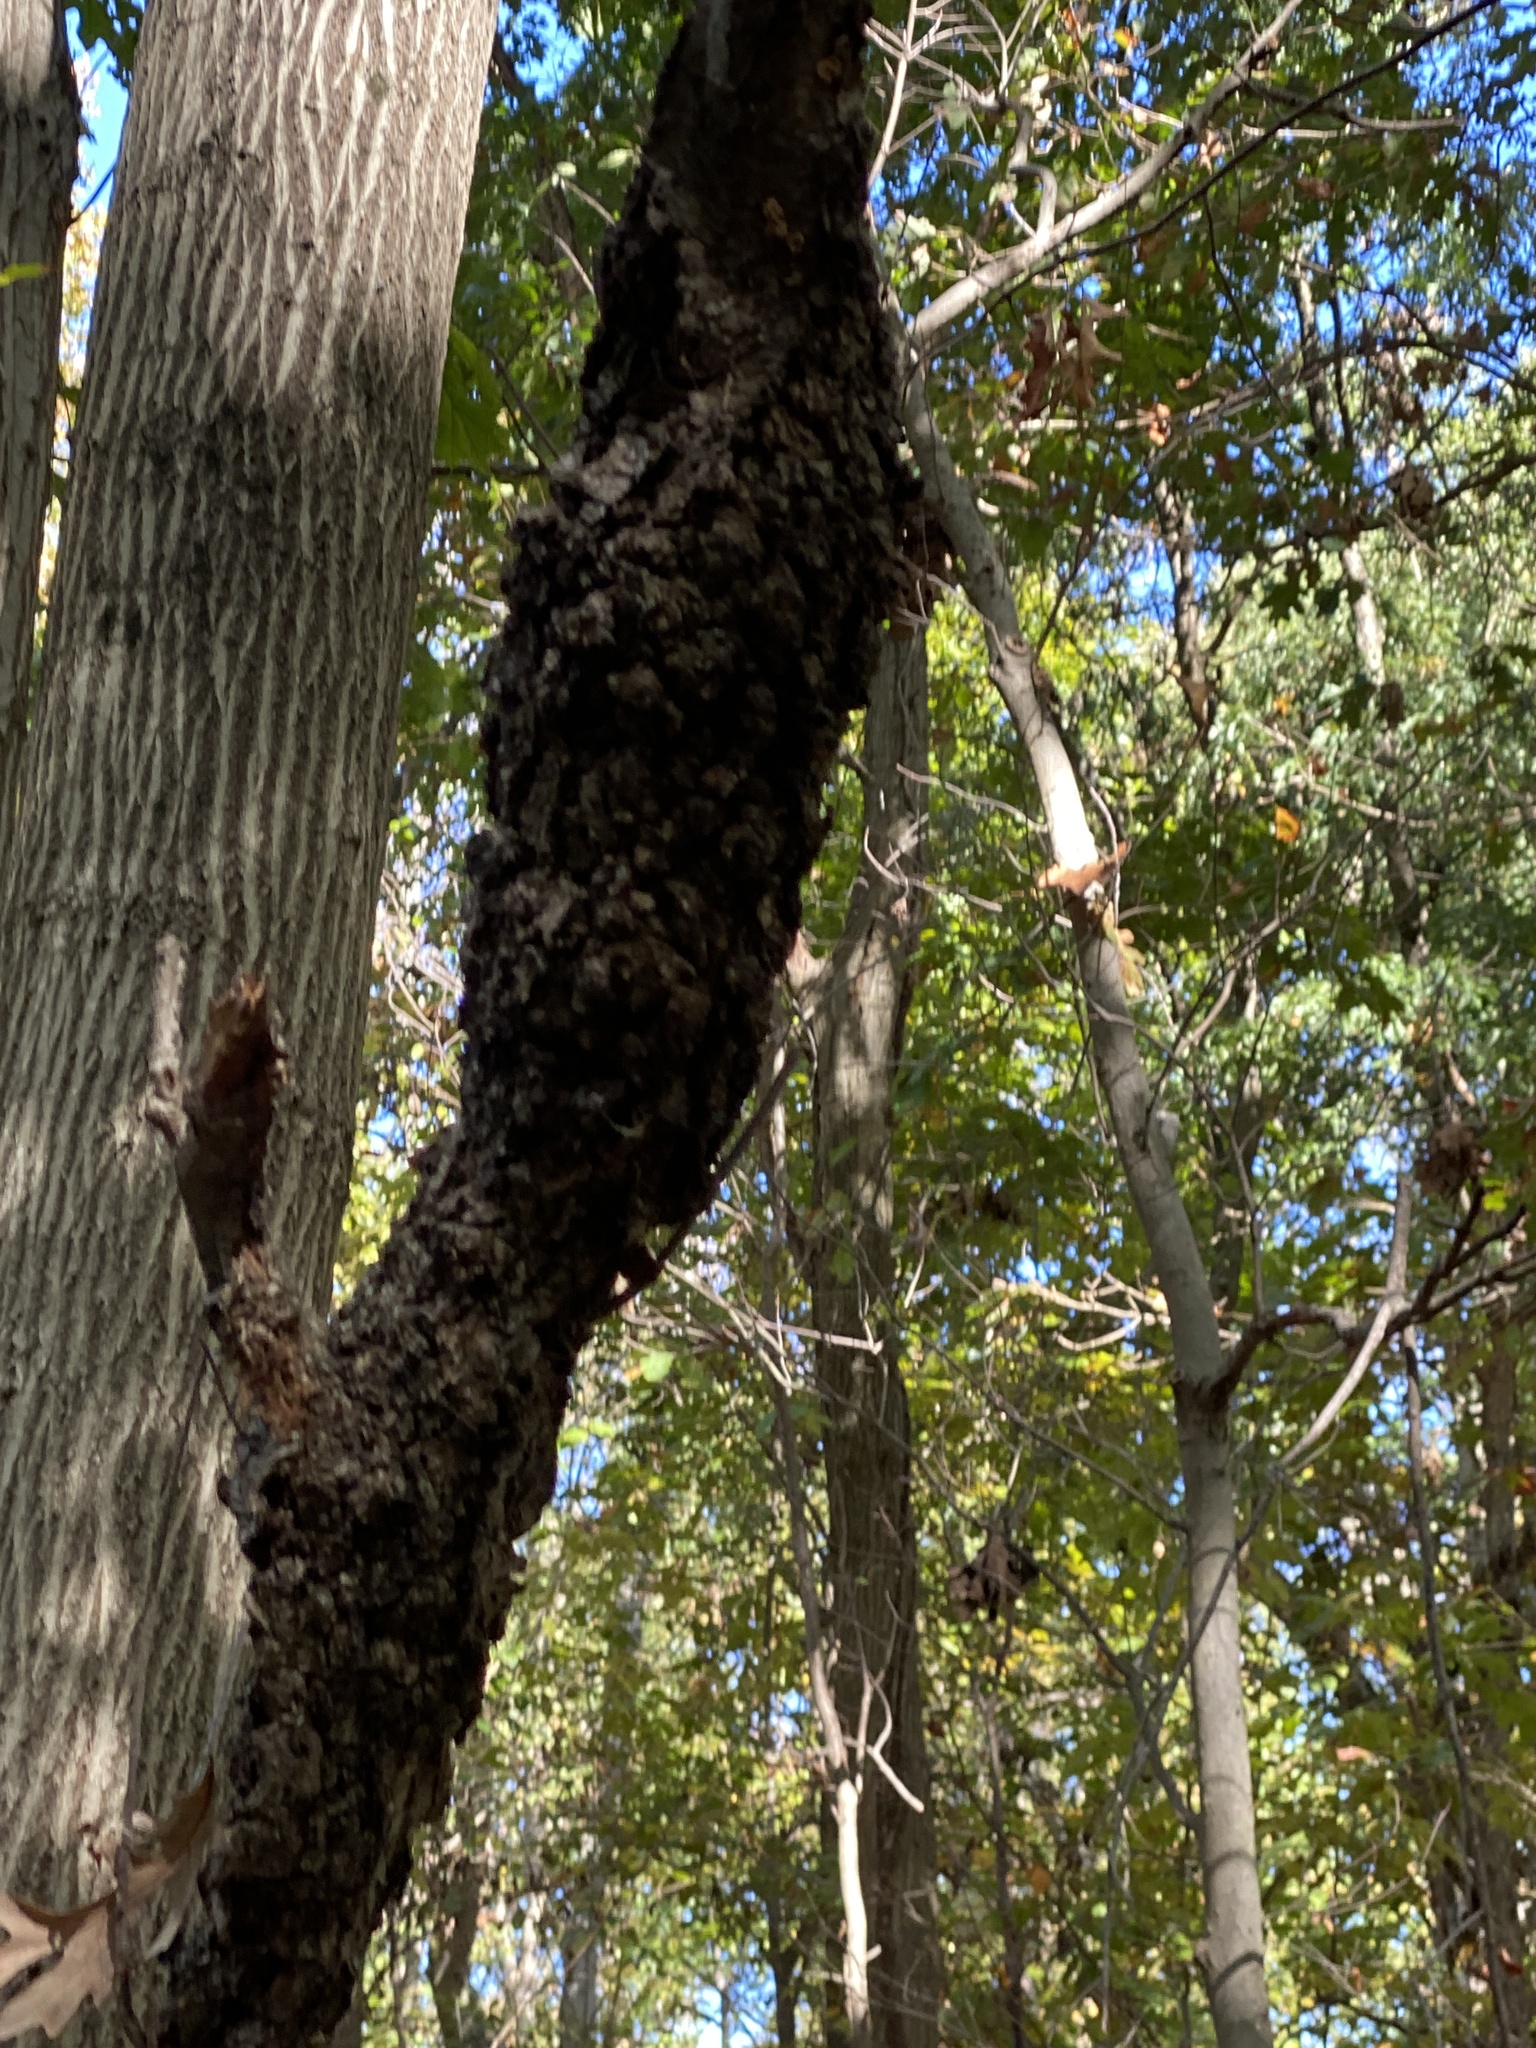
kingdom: Fungi
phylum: Ascomycota
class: Dothideomycetes
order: Venturiales
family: Venturiaceae
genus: Apiosporina
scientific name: Apiosporina morbosa
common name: Black knot
